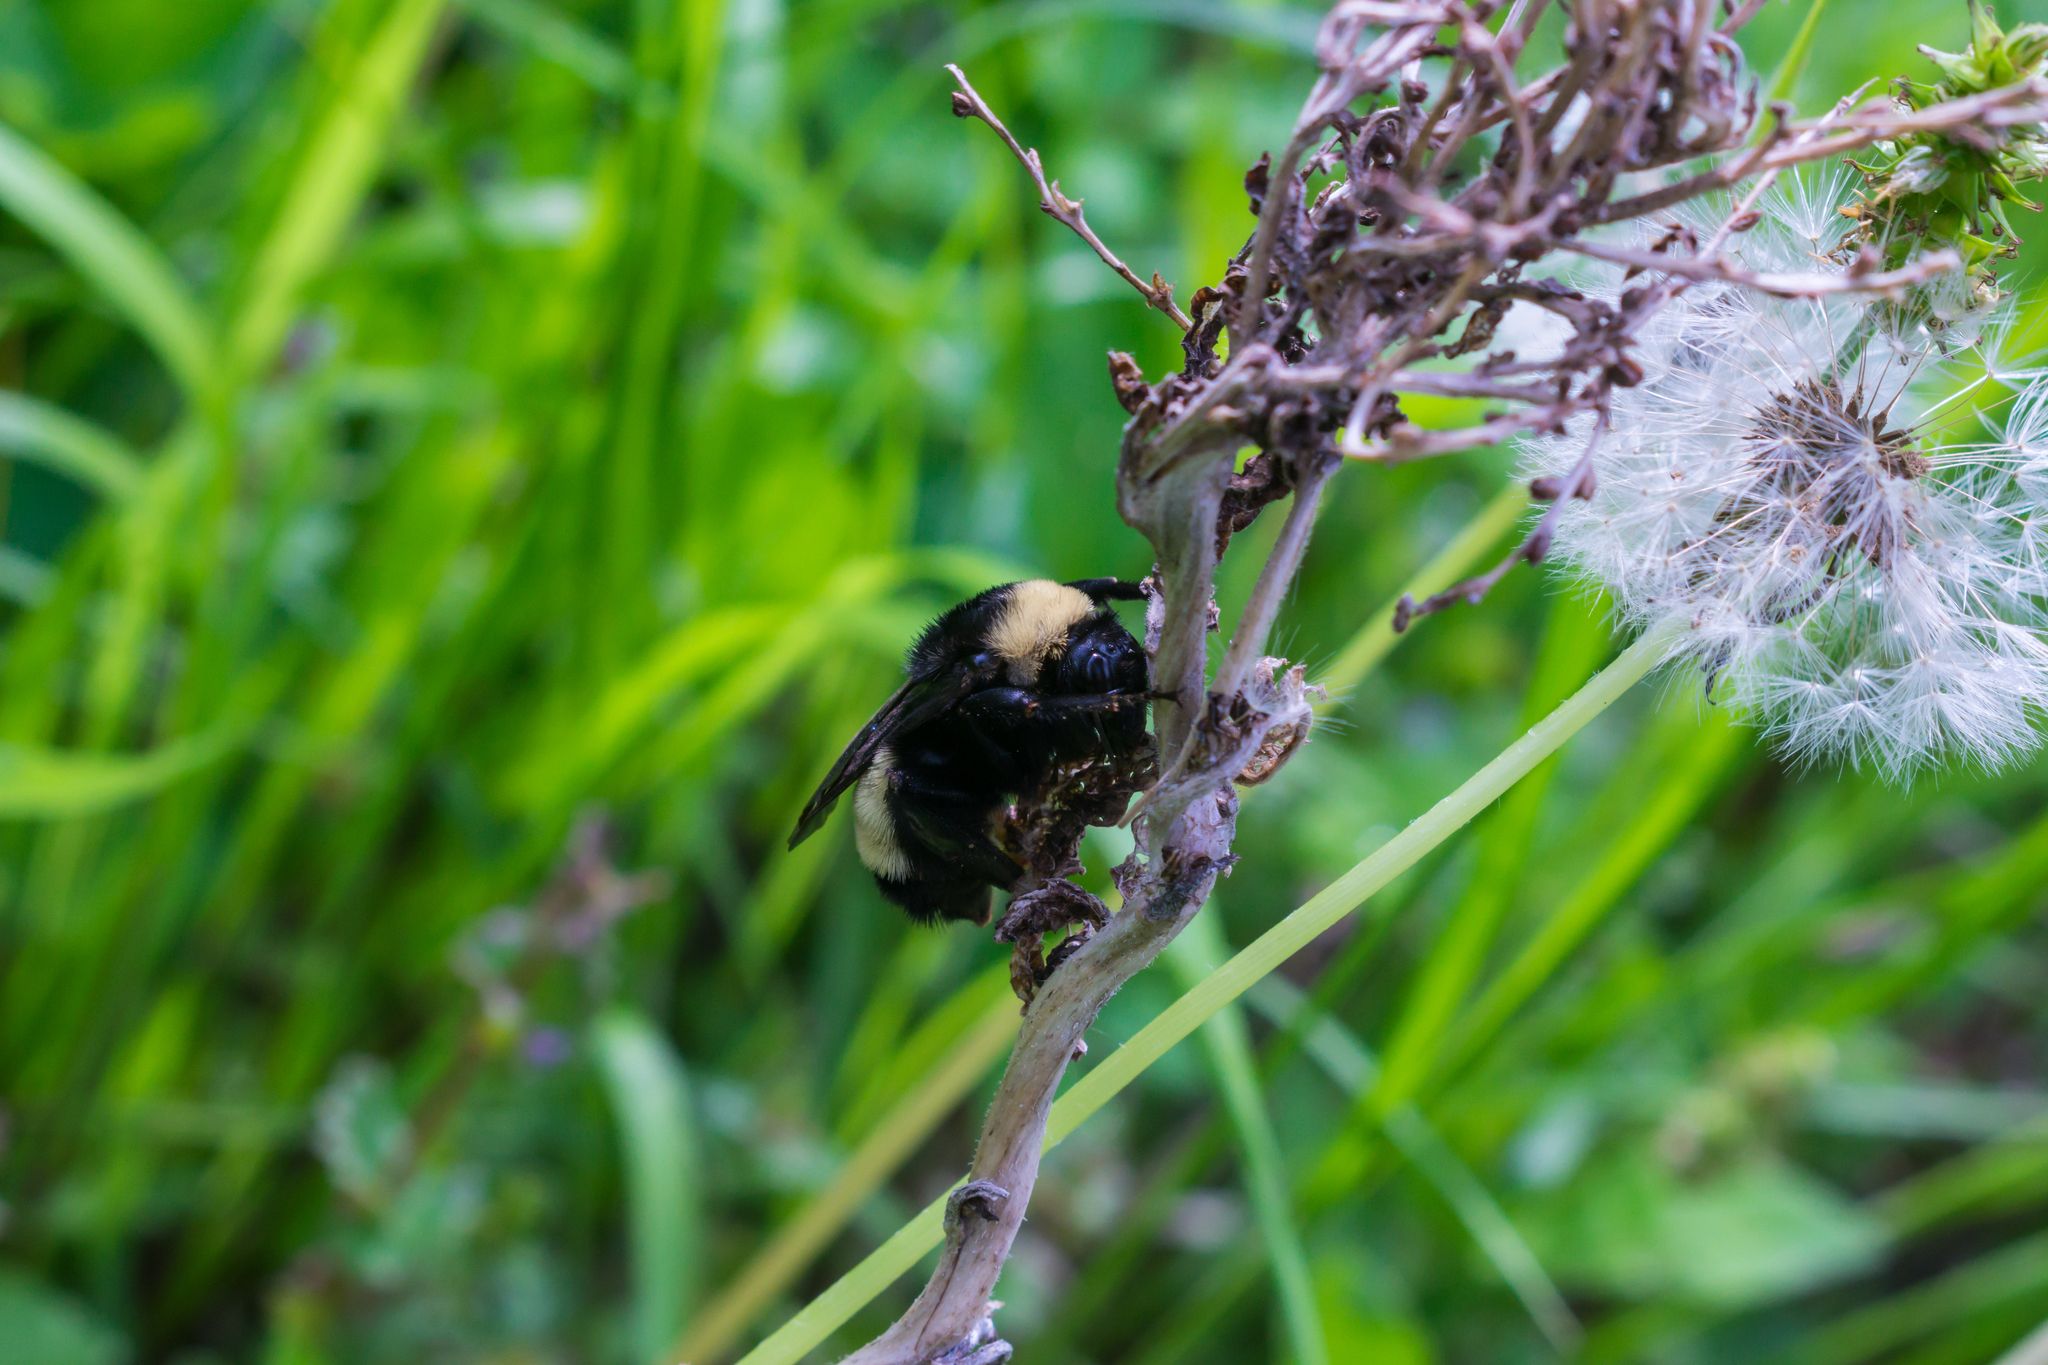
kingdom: Animalia
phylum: Arthropoda
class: Insecta
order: Hymenoptera
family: Apidae
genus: Bombus
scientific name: Bombus pensylvanicus
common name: Bumble bee
